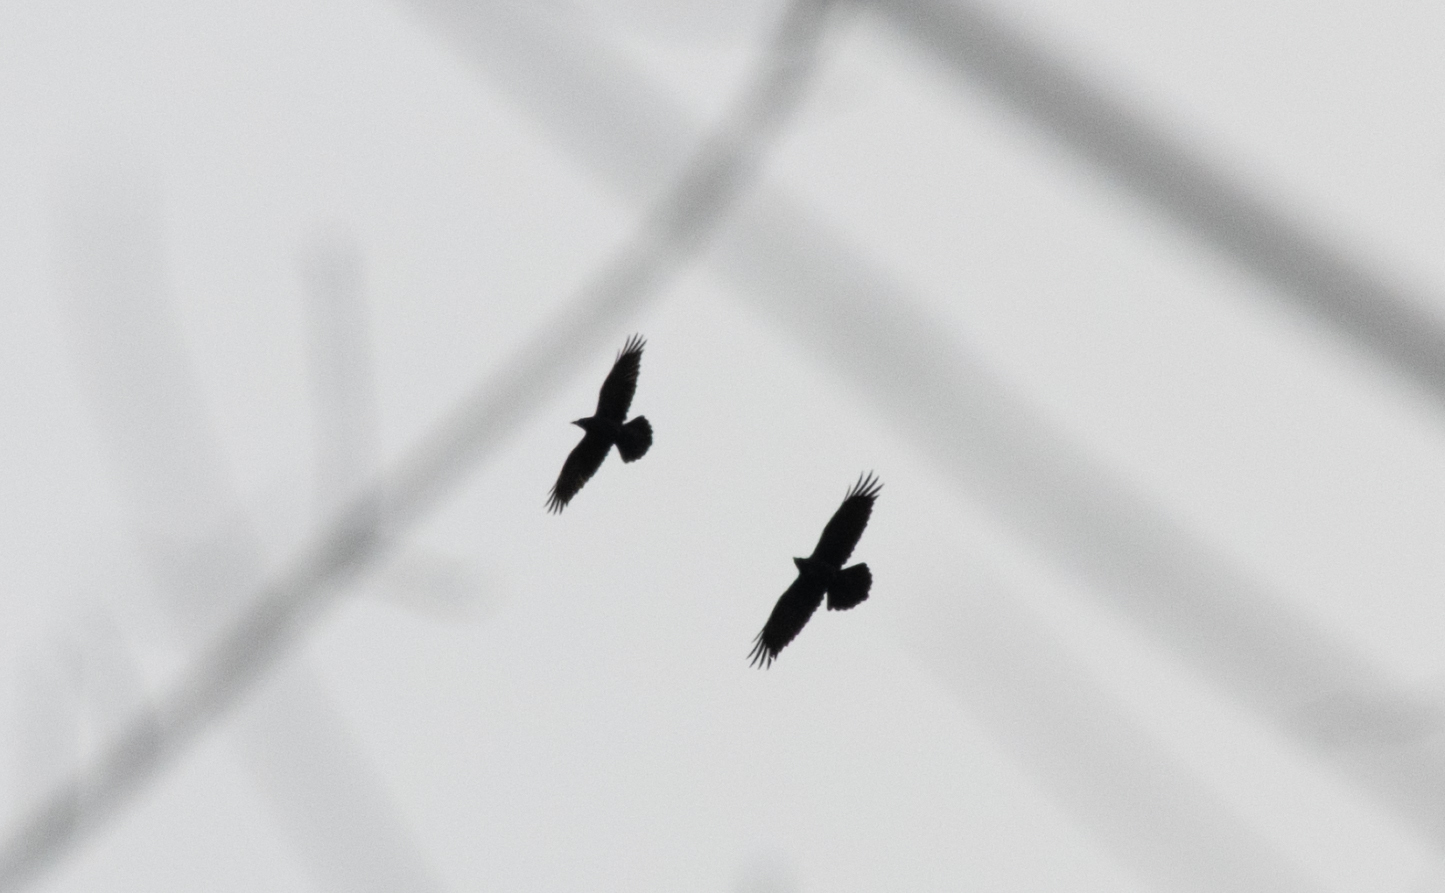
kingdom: Animalia
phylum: Chordata
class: Aves
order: Passeriformes
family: Corvidae
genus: Corvus
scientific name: Corvus corax
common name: Common raven
